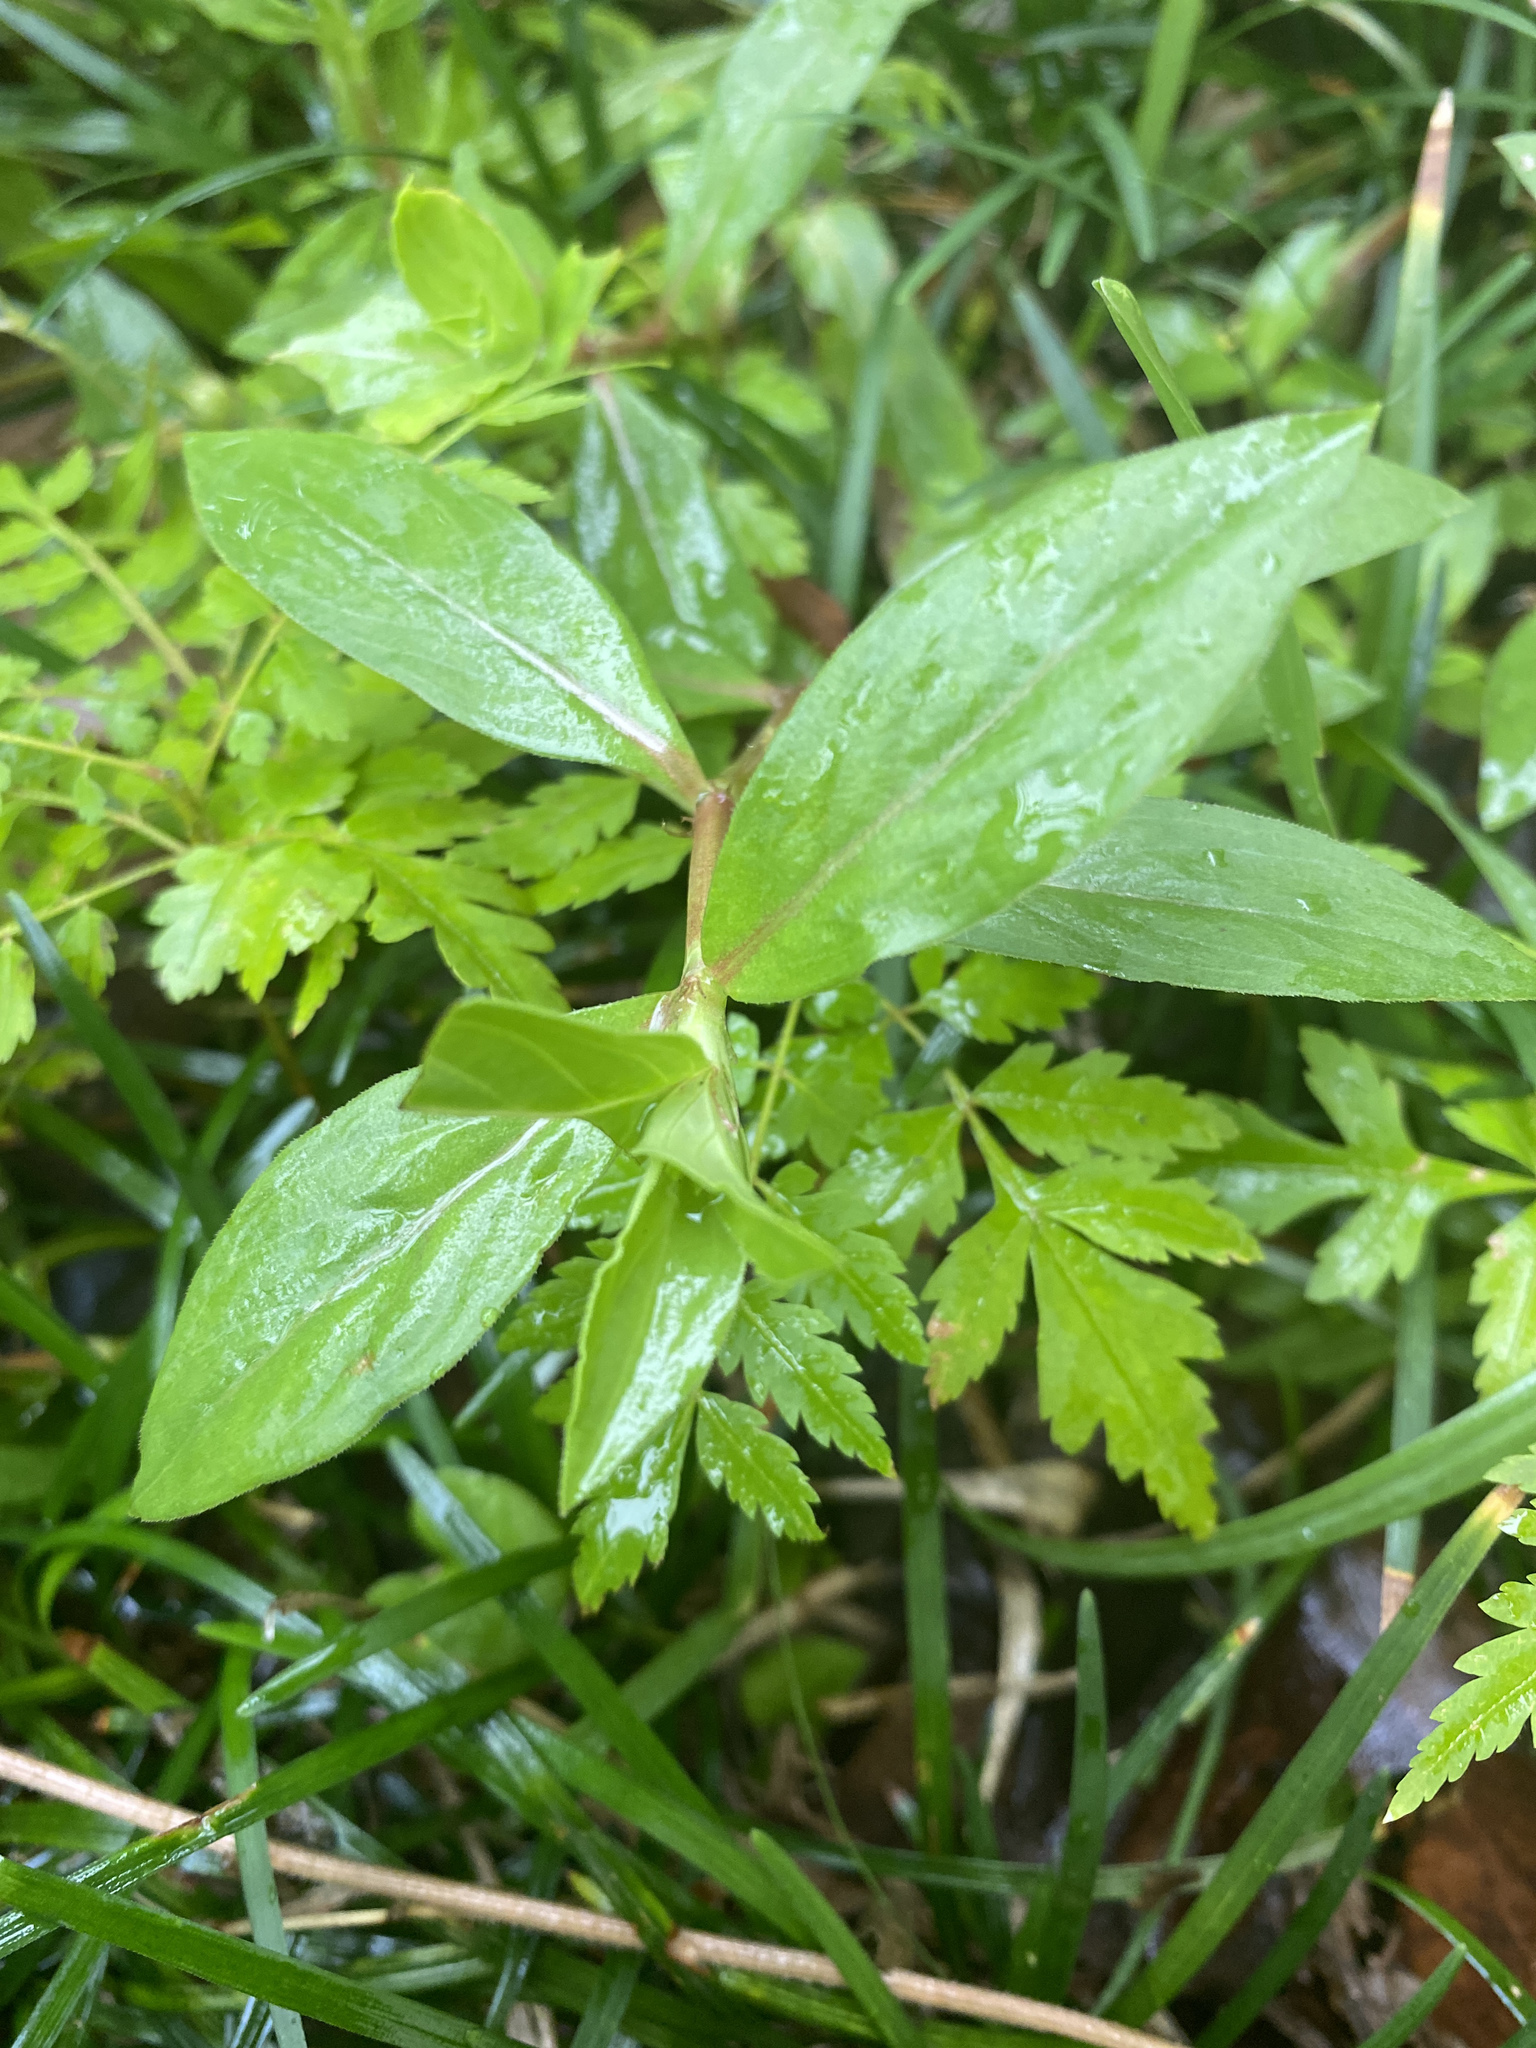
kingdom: Plantae
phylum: Tracheophyta
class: Magnoliopsida
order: Gentianales
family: Rubiaceae
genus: Diodia
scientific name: Diodia virginiana
